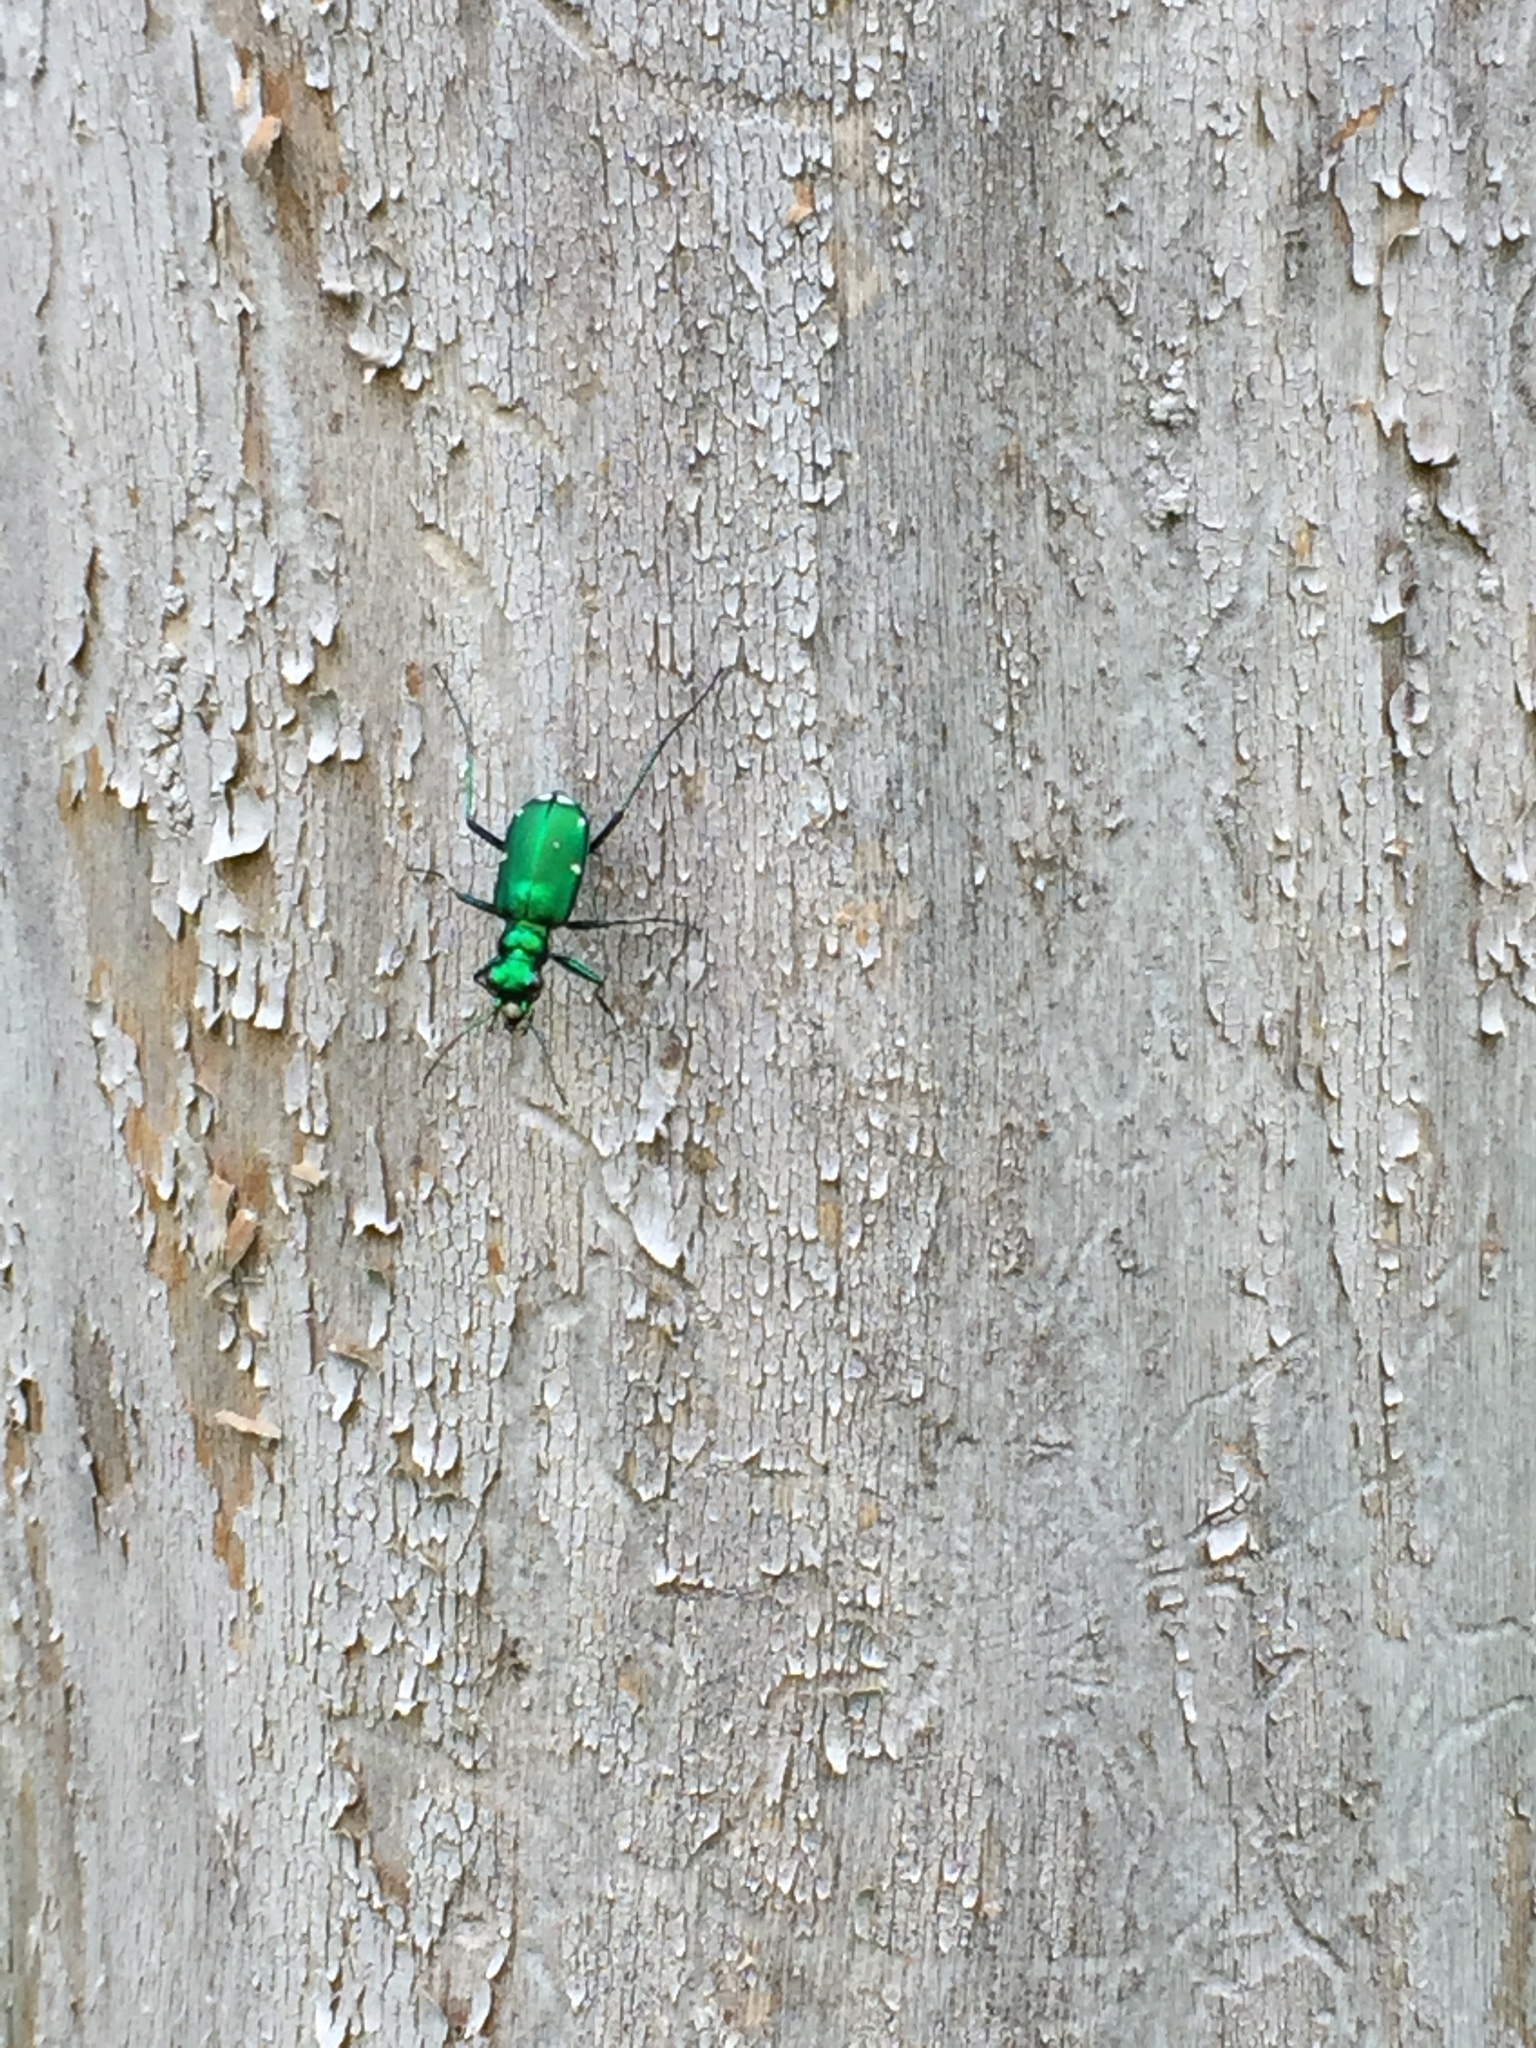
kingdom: Animalia
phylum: Arthropoda
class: Insecta
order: Coleoptera
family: Carabidae
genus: Cicindela
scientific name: Cicindela sexguttata
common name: Six-spotted tiger beetle
